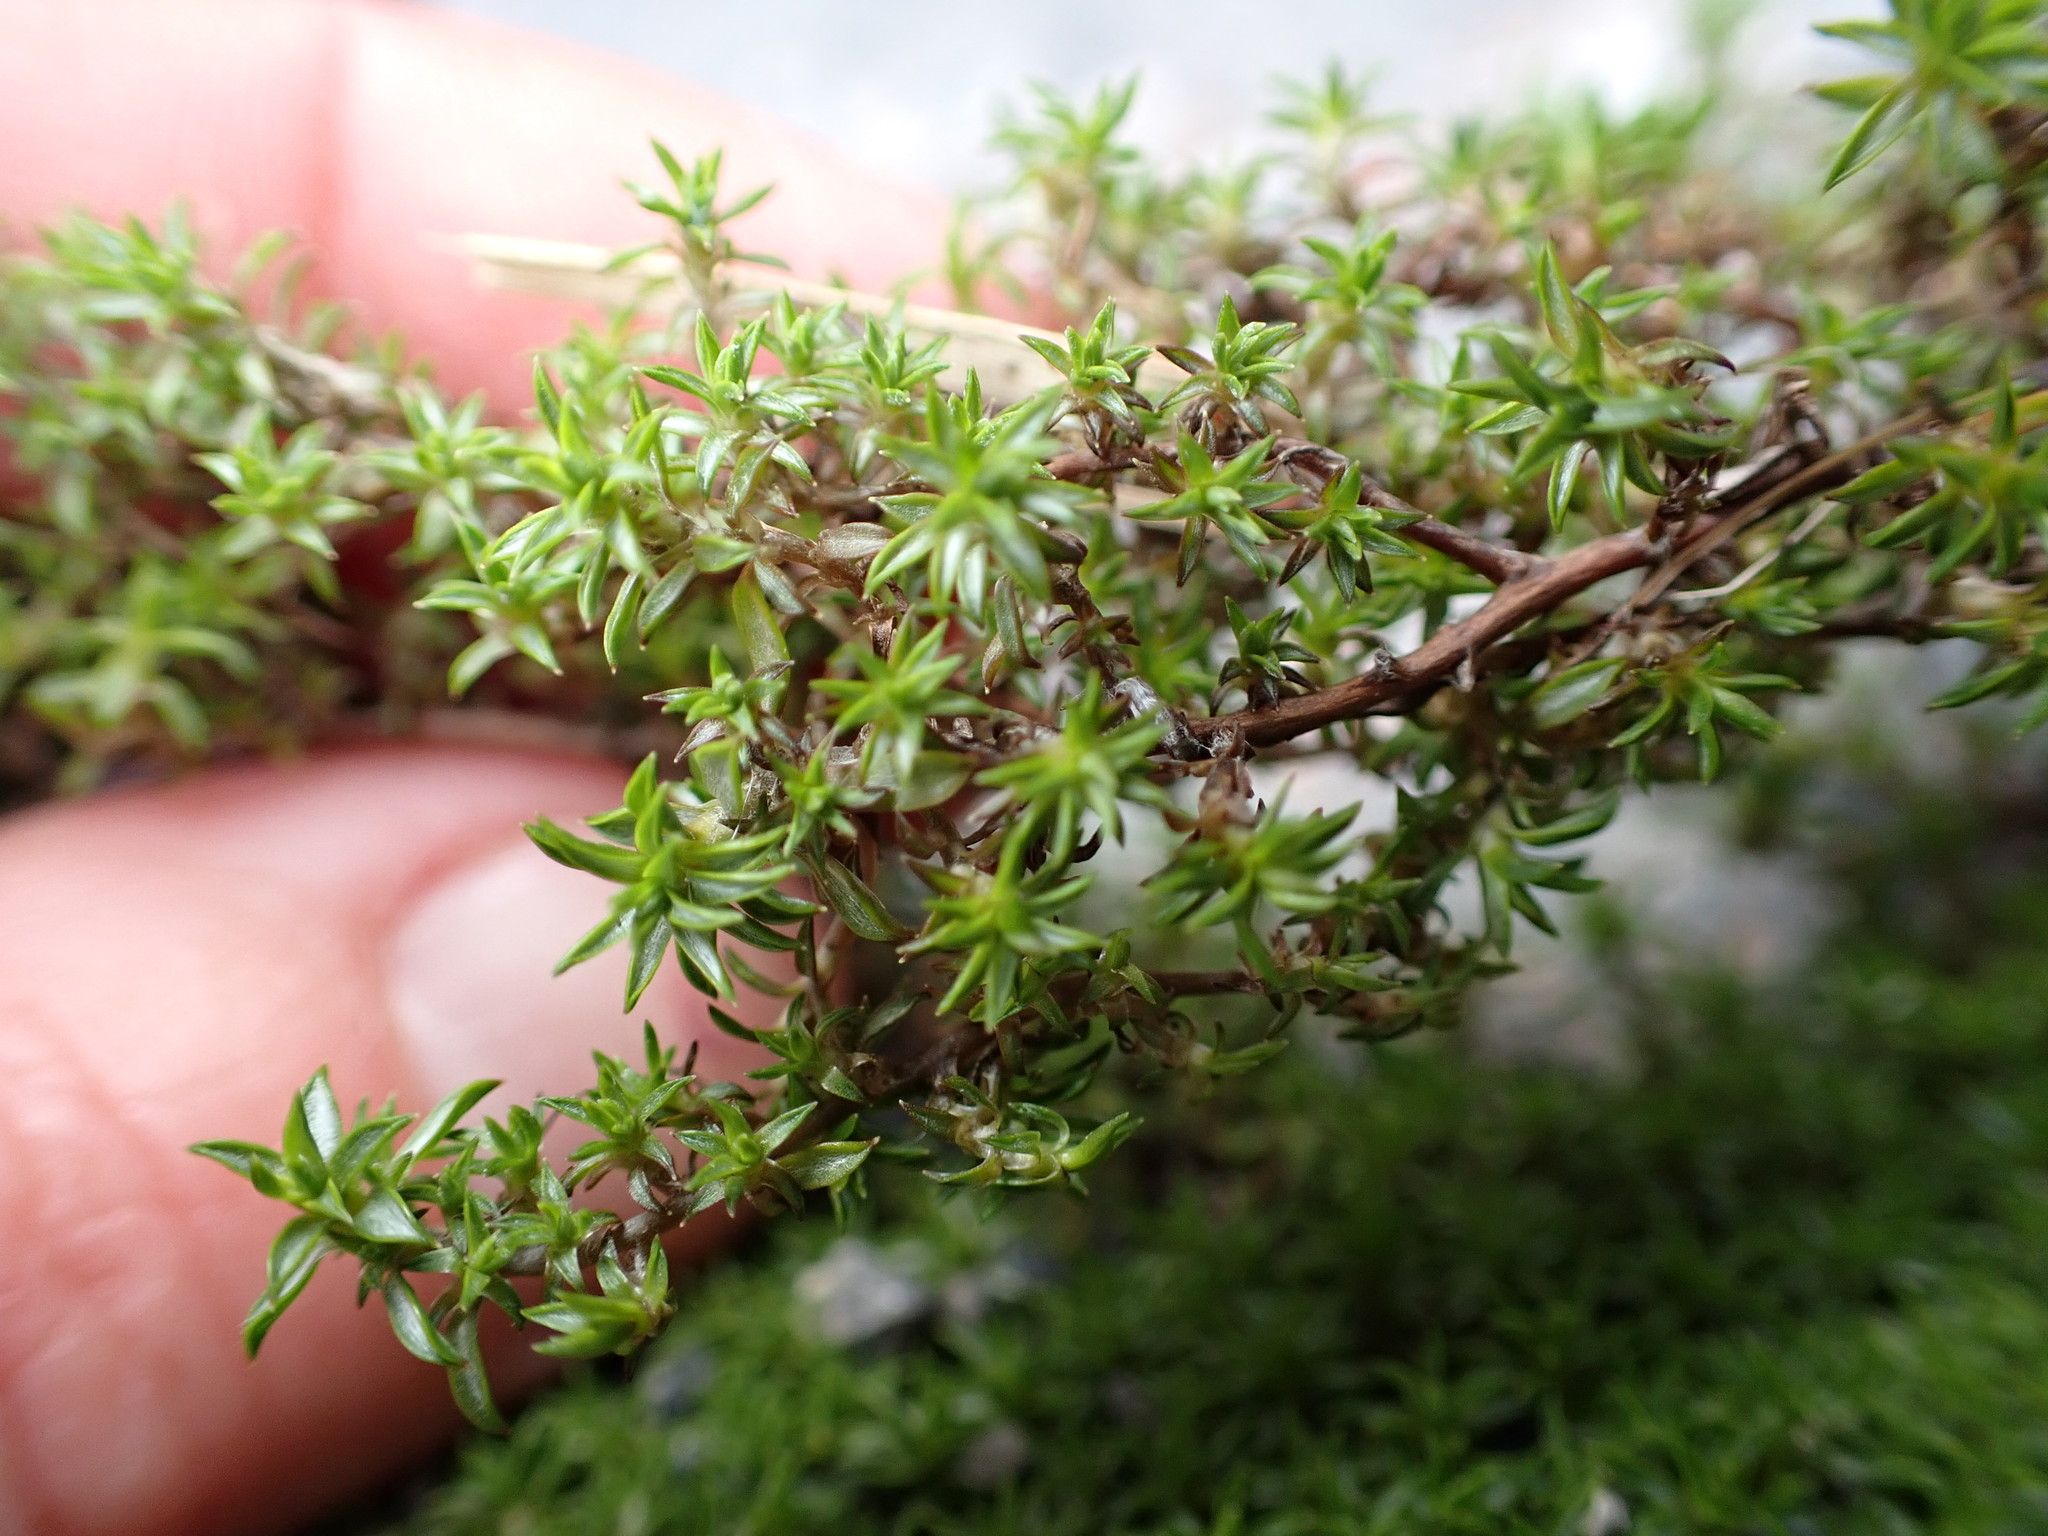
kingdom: Plantae
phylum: Tracheophyta
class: Magnoliopsida
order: Asterales
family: Asteraceae
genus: Raoulia
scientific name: Raoulia tenuicaulis
